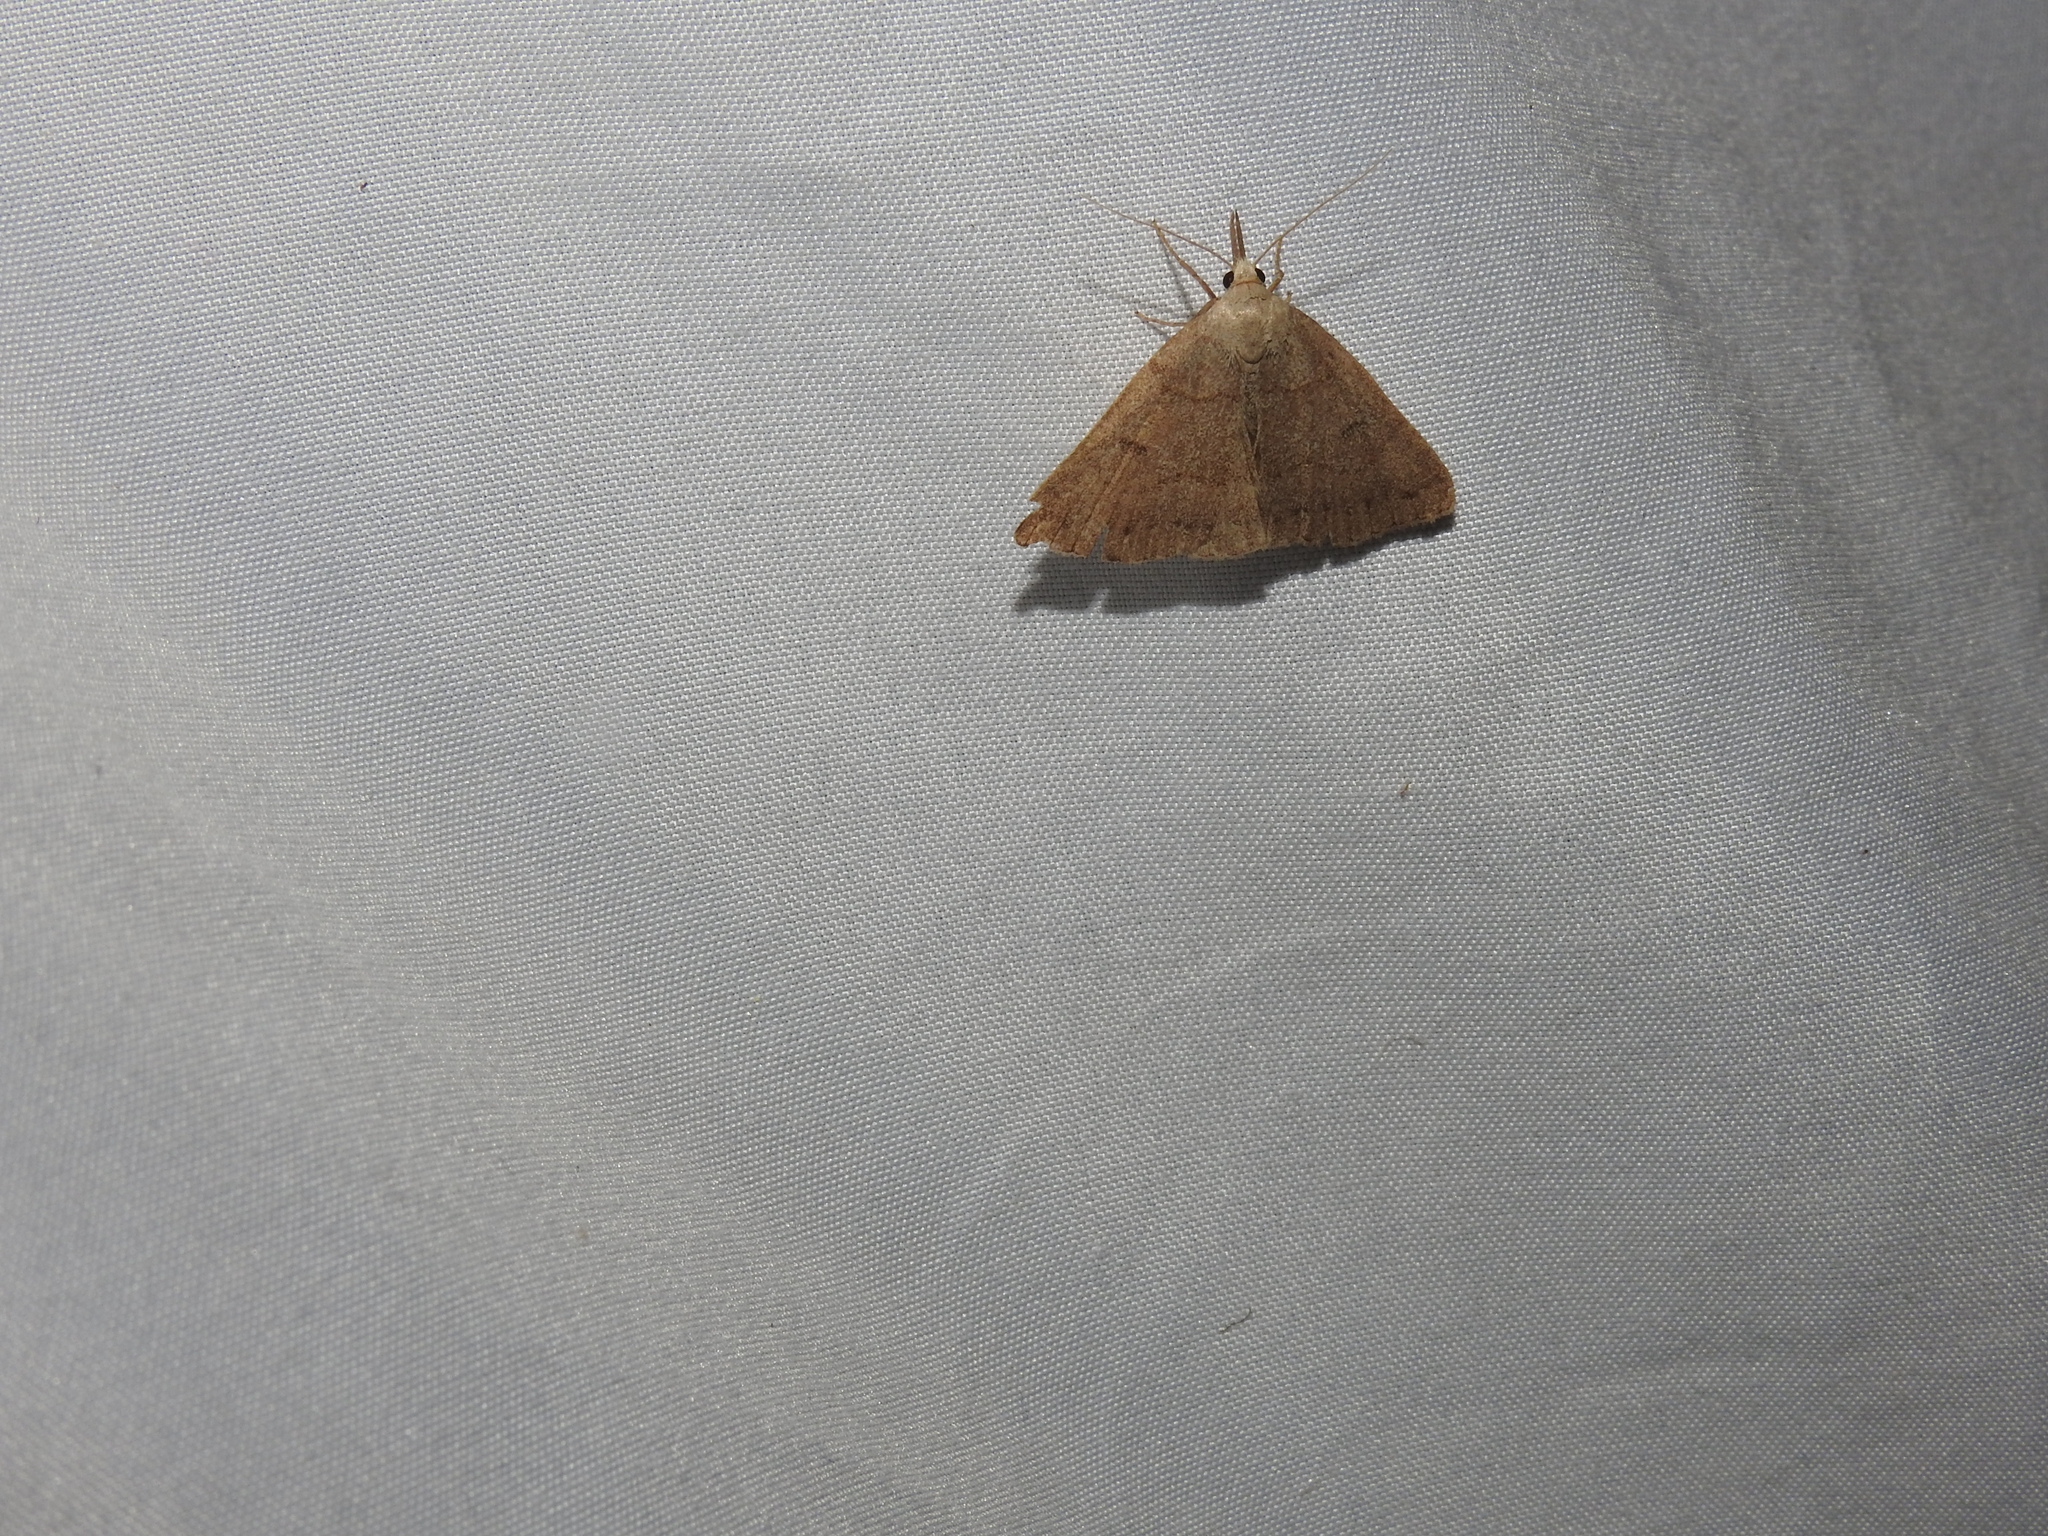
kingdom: Animalia
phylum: Arthropoda
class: Insecta
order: Lepidoptera
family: Erebidae
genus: Macrochilo
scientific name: Macrochilo morbidalis
